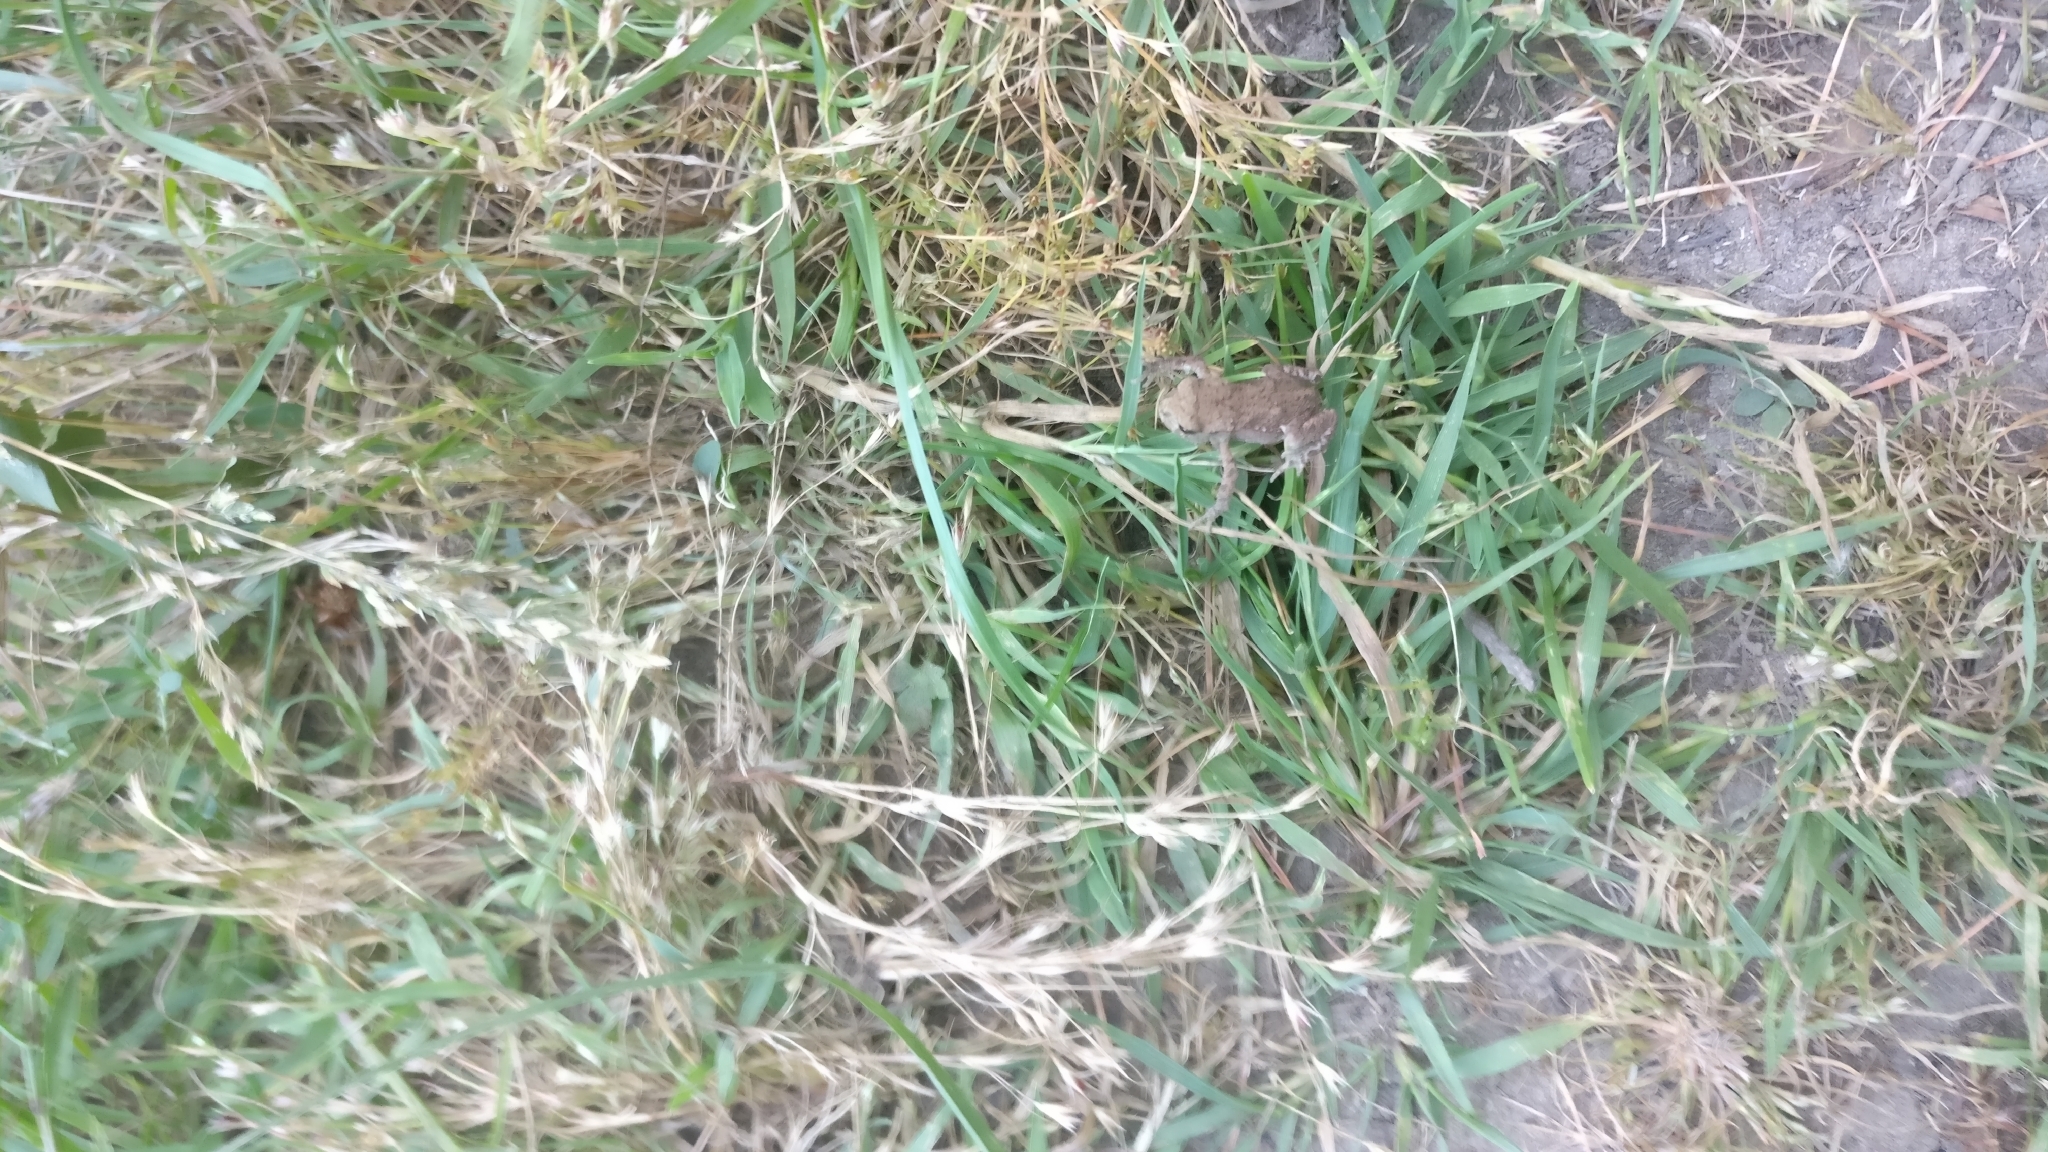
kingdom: Animalia
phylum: Chordata
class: Amphibia
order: Anura
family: Bufonidae
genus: Bufo
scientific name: Bufo bufo
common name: Common toad
